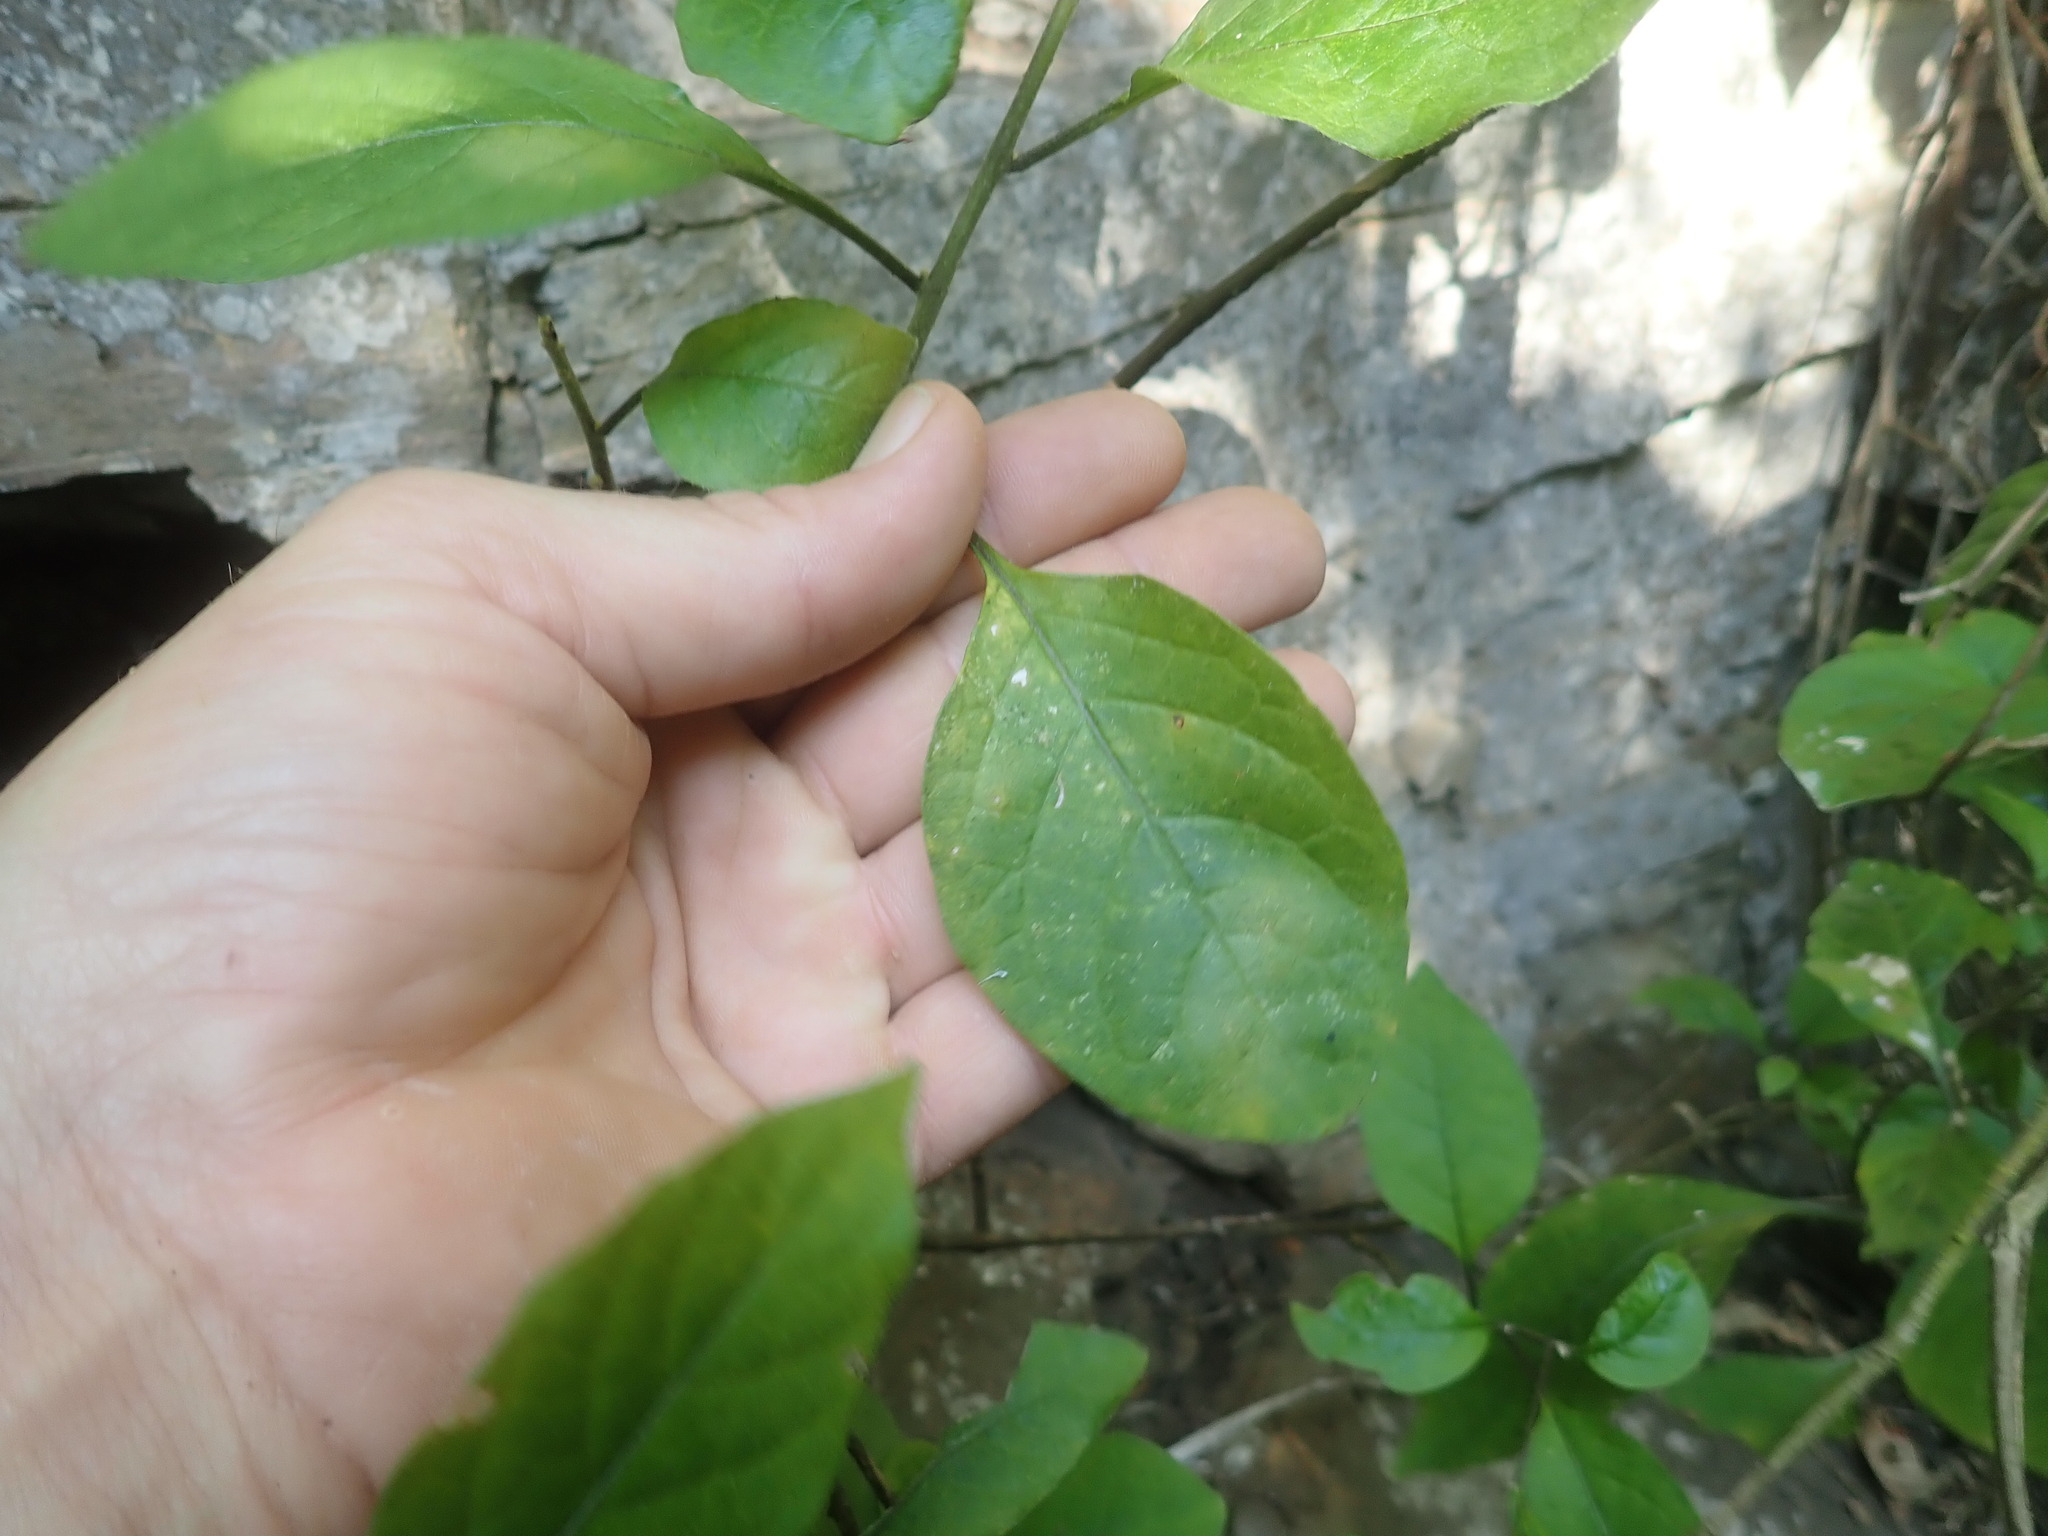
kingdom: Plantae
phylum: Tracheophyta
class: Magnoliopsida
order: Solanales
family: Solanaceae
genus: Solanum
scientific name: Solanum terminale
